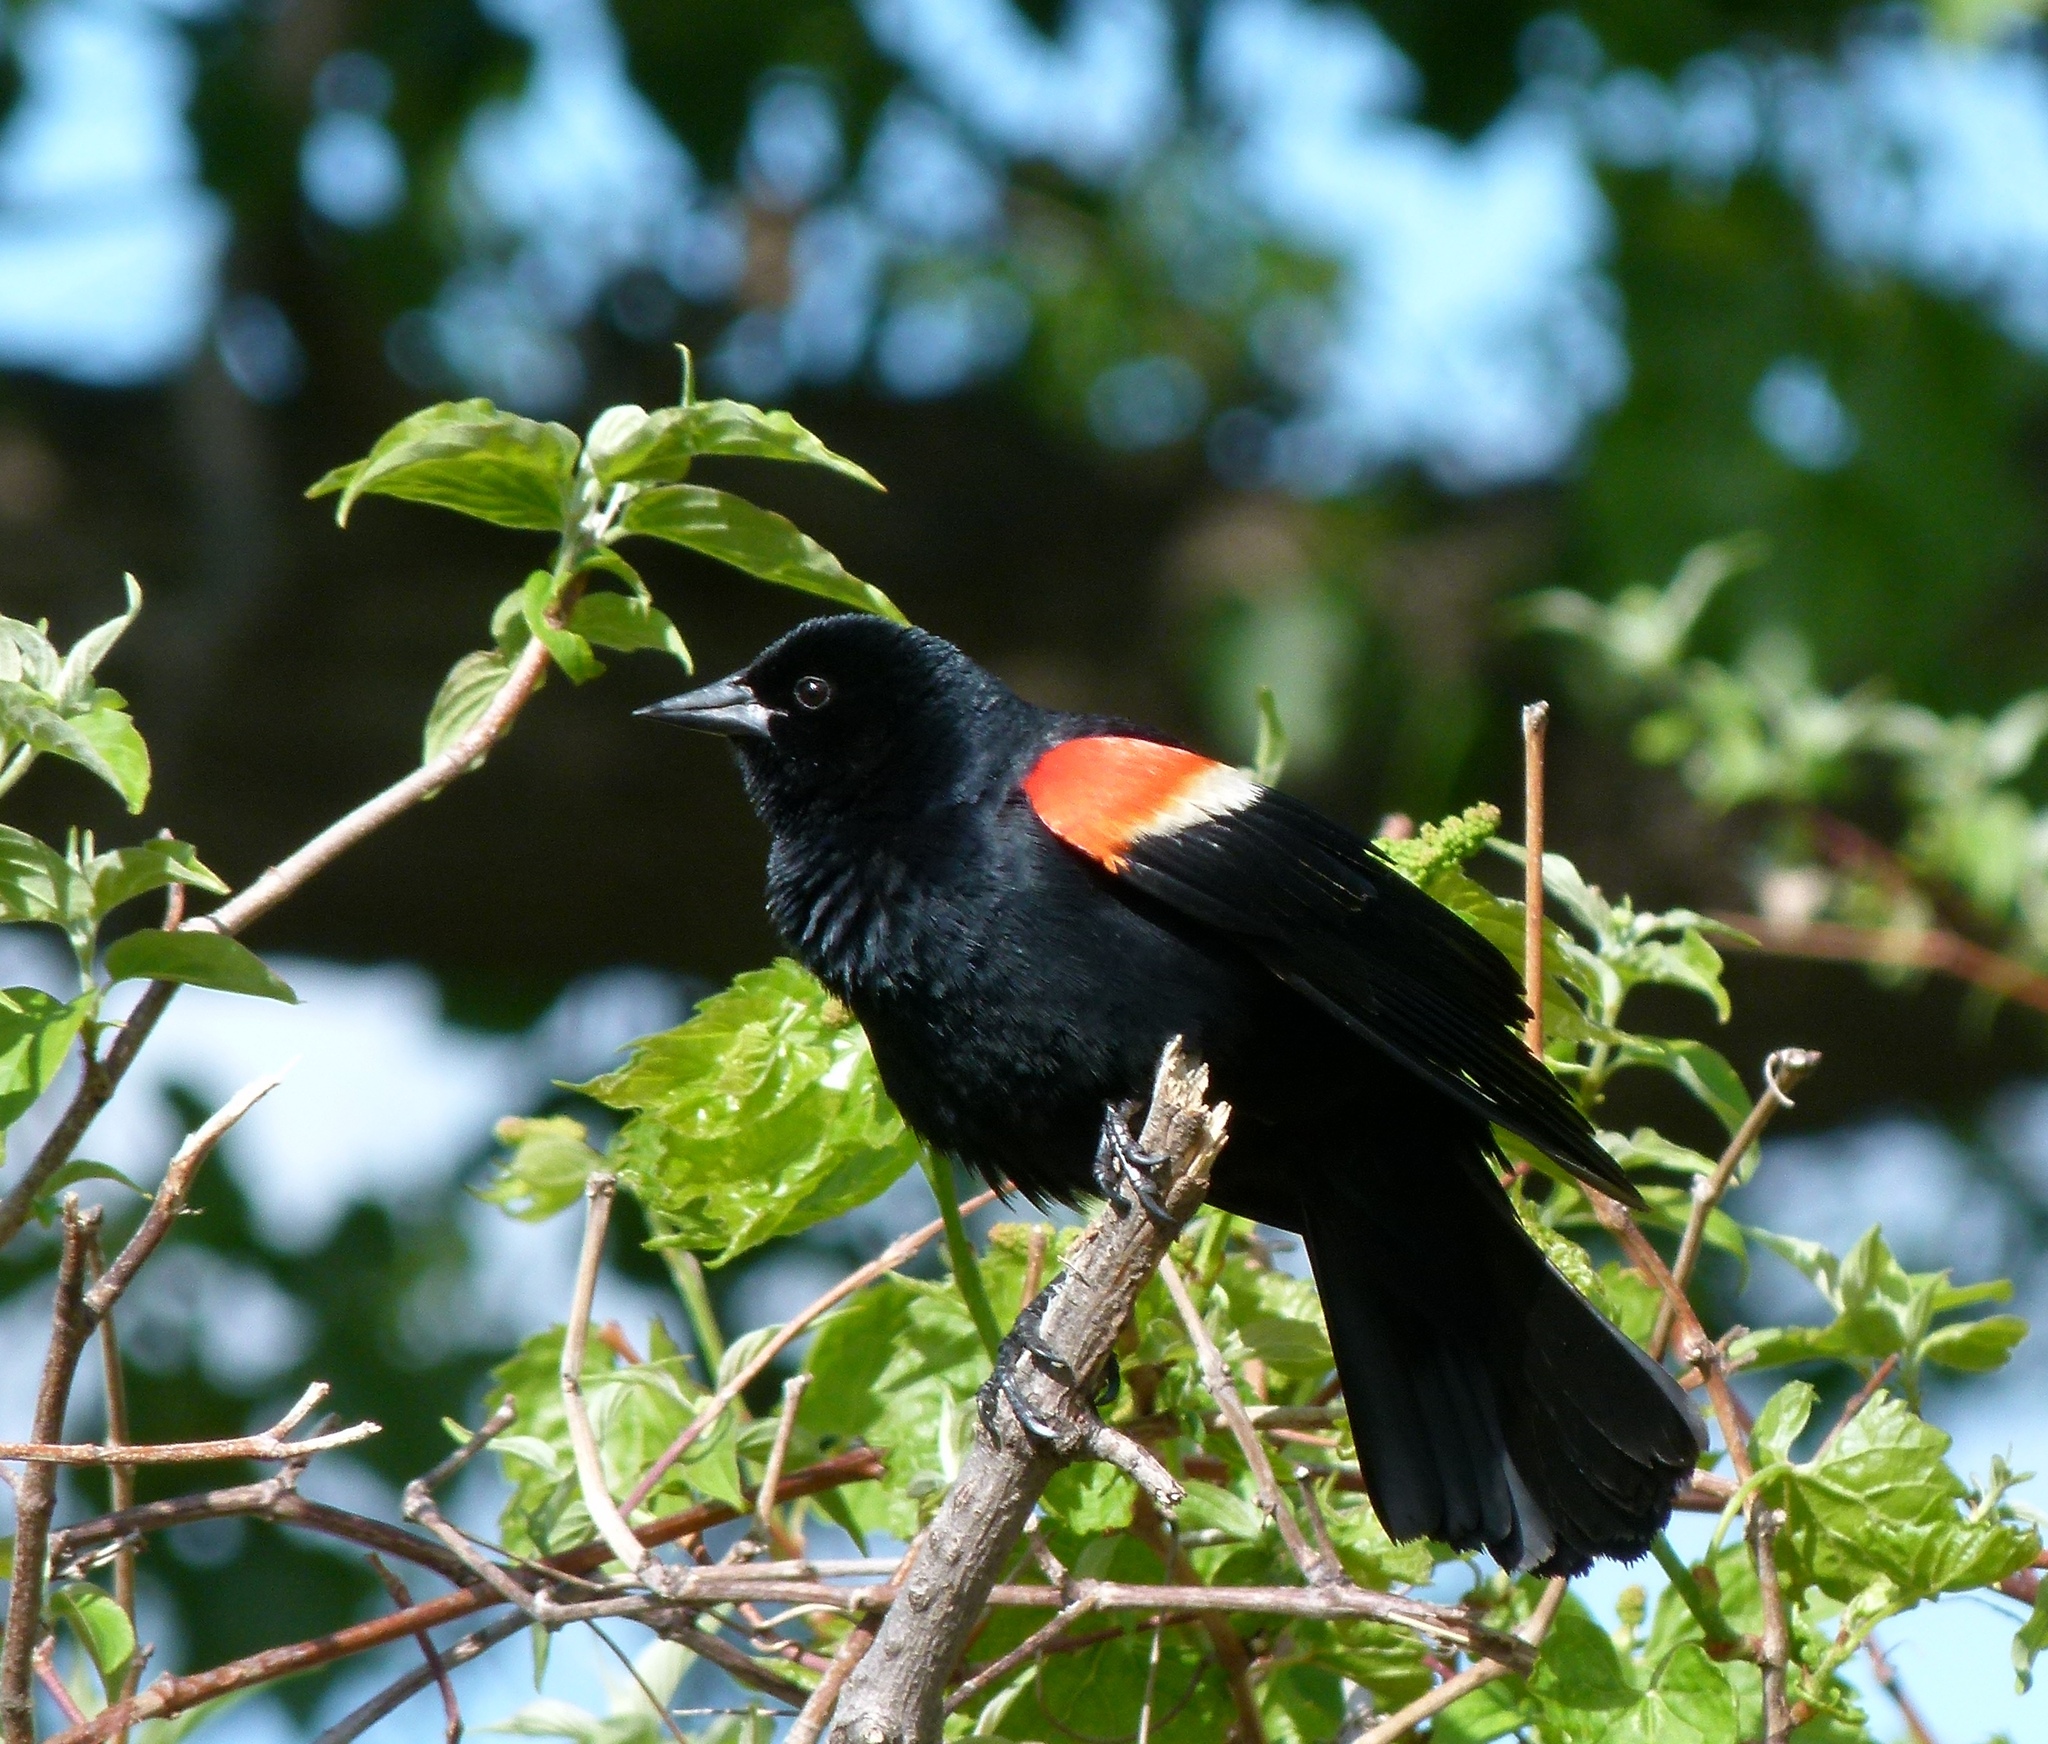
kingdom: Animalia
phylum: Chordata
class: Aves
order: Passeriformes
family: Icteridae
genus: Agelaius
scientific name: Agelaius phoeniceus
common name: Red-winged blackbird
